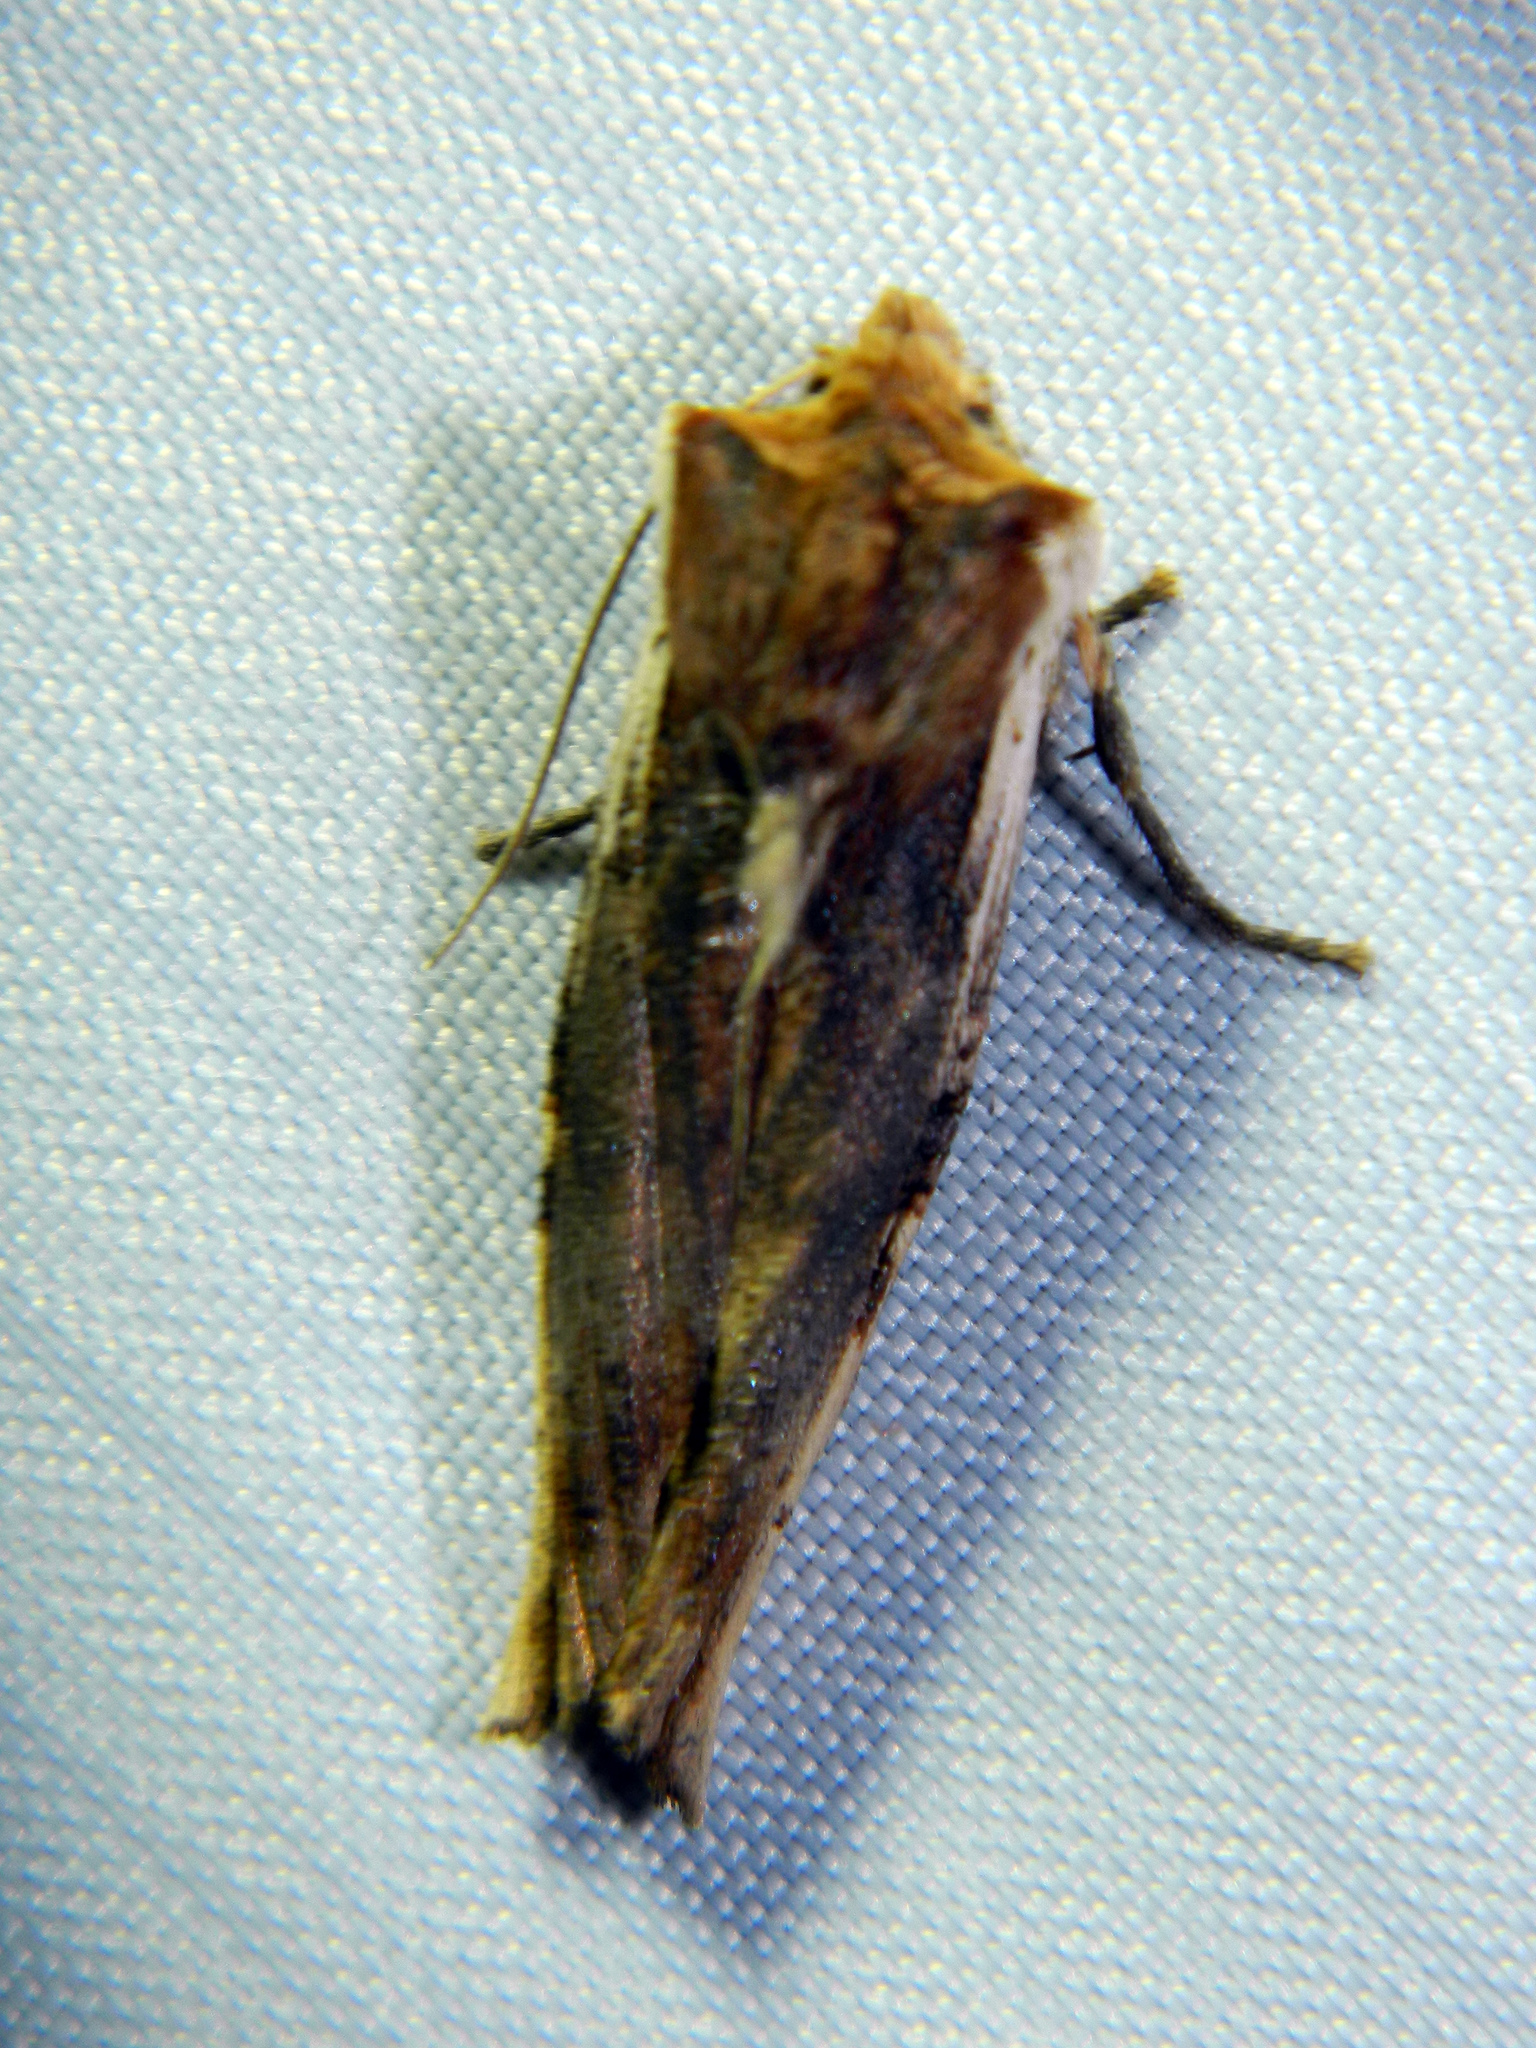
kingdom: Animalia
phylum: Arthropoda
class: Insecta
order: Lepidoptera
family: Noctuidae
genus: Xylena
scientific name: Xylena curvimacula
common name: Dot-and-dash swordgrass moth
